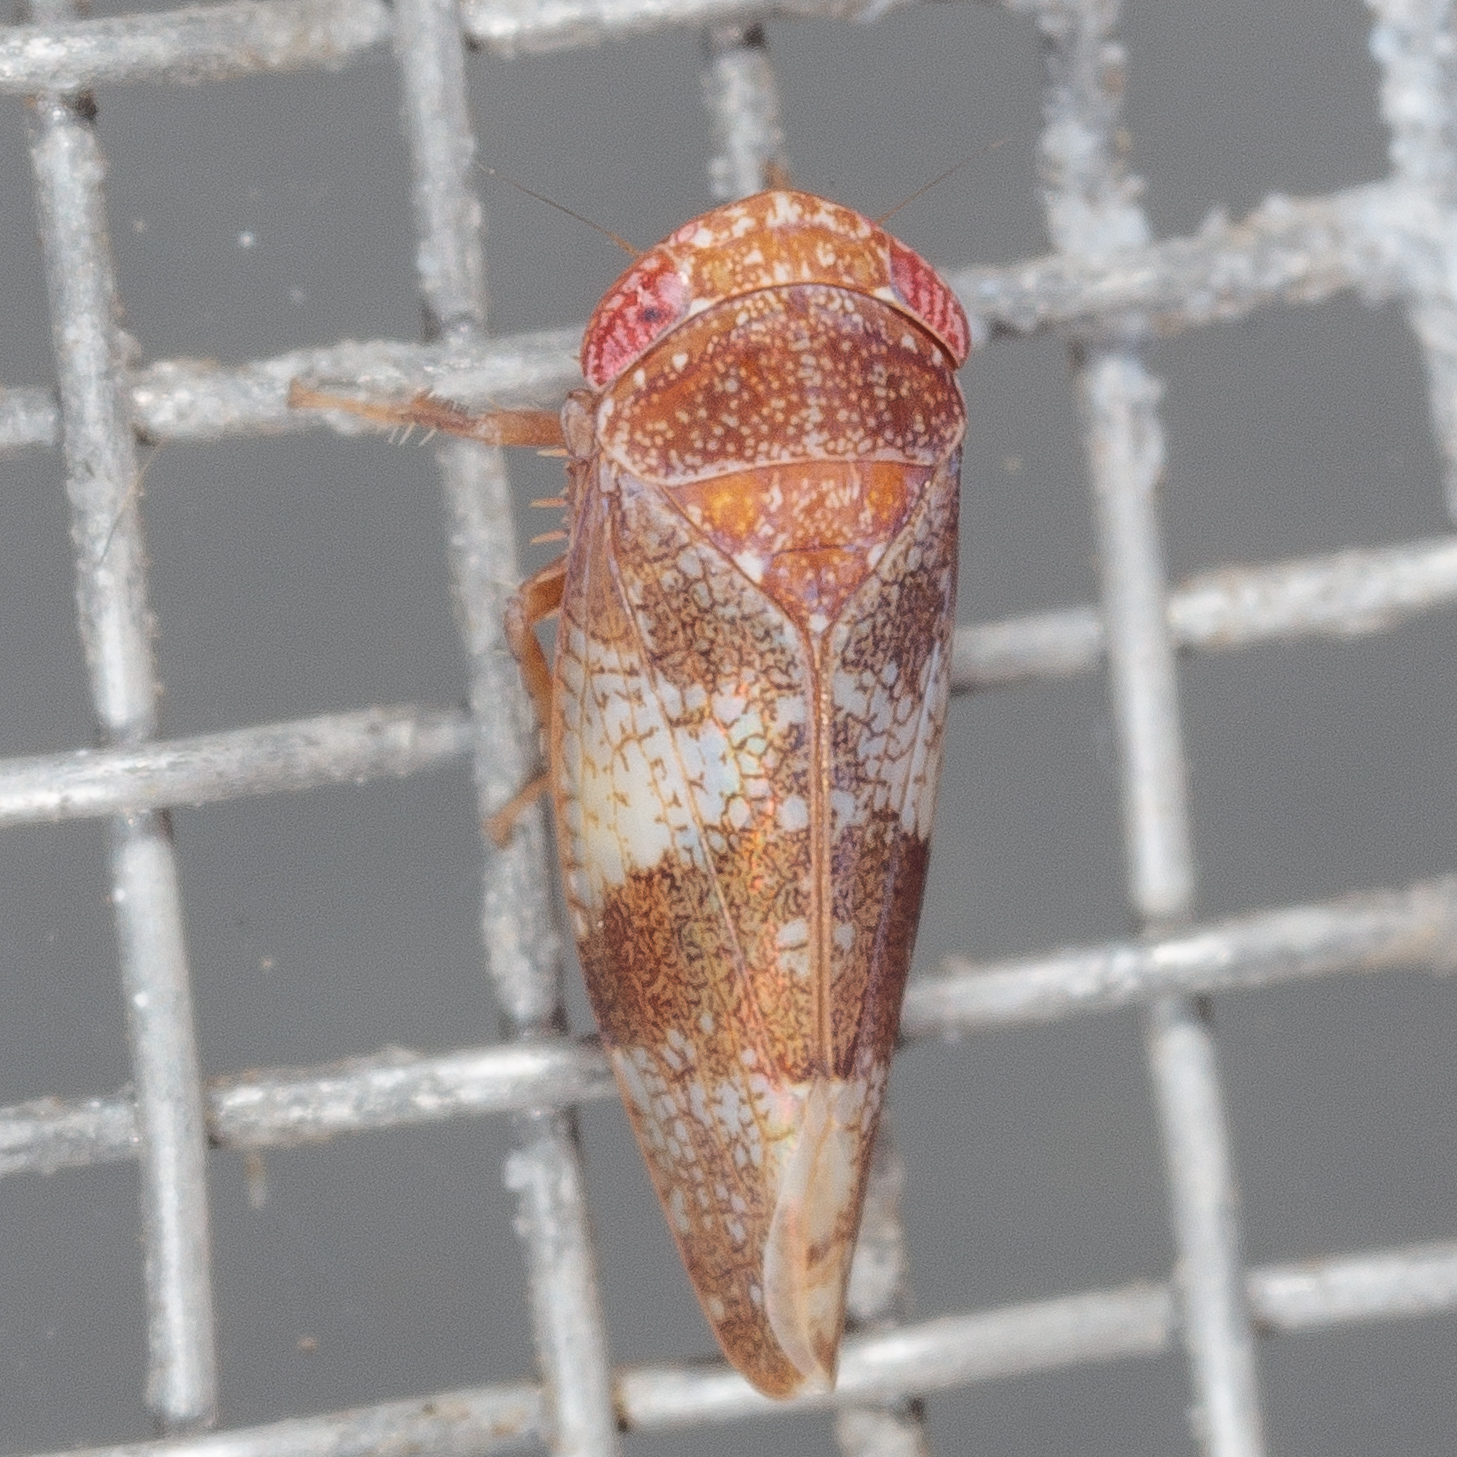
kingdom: Animalia
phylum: Arthropoda
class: Insecta
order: Hemiptera
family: Cicadellidae
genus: Norvellina
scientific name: Norvellina helenae
